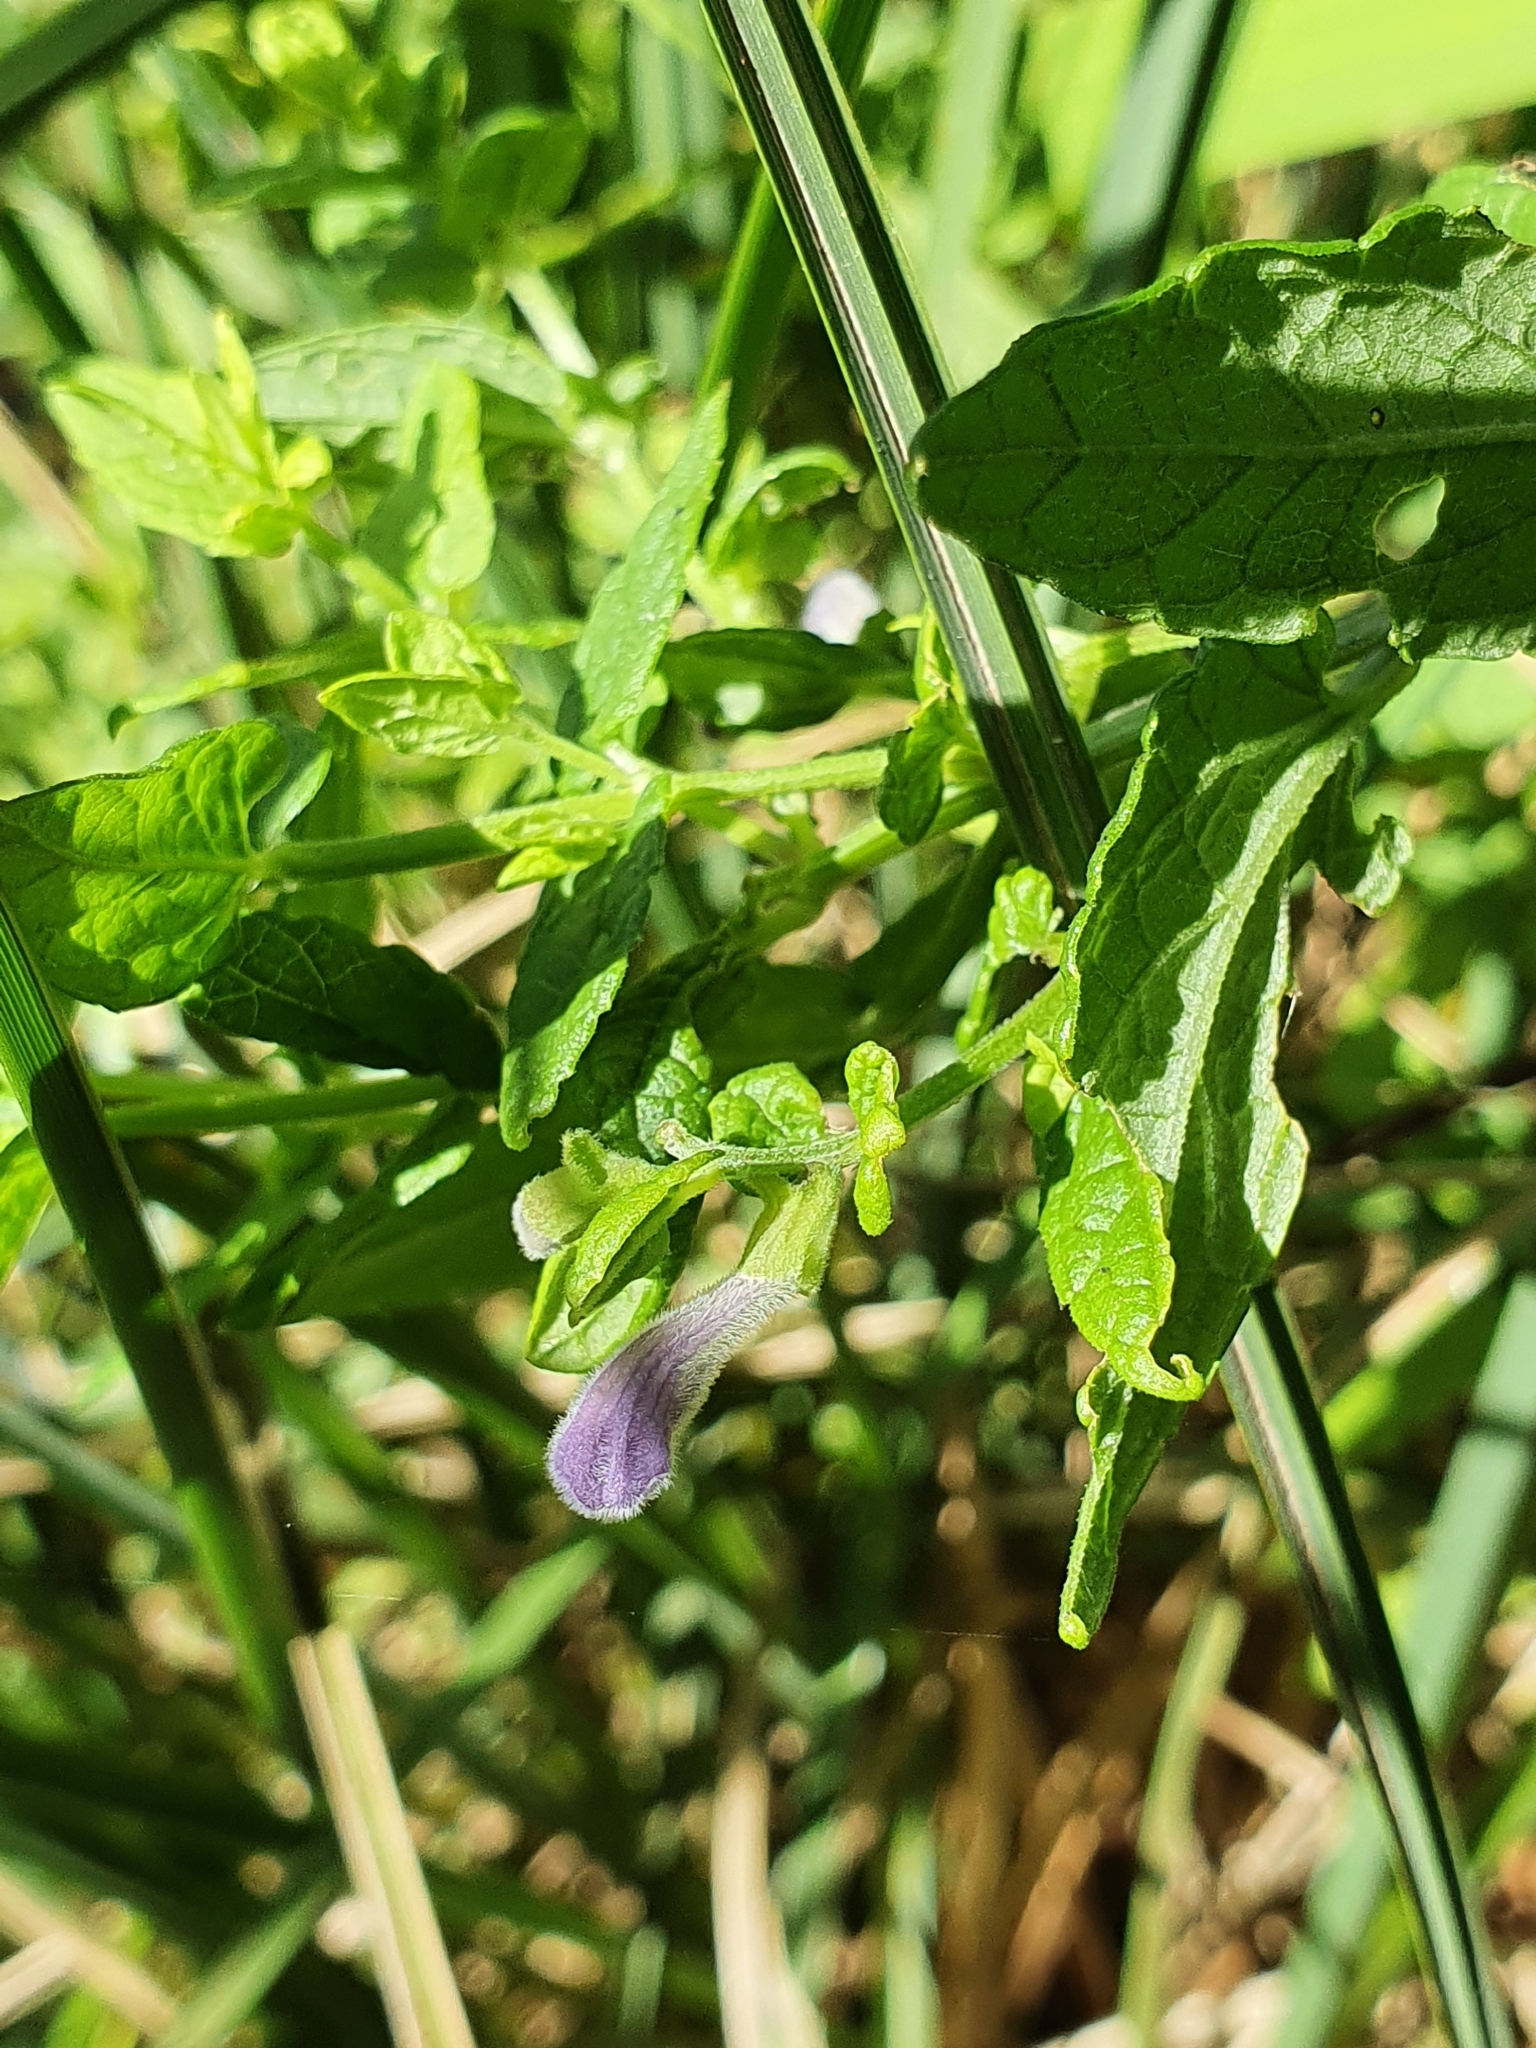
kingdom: Plantae
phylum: Tracheophyta
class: Magnoliopsida
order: Lamiales
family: Lamiaceae
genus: Scutellaria
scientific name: Scutellaria galericulata
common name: Skullcap
